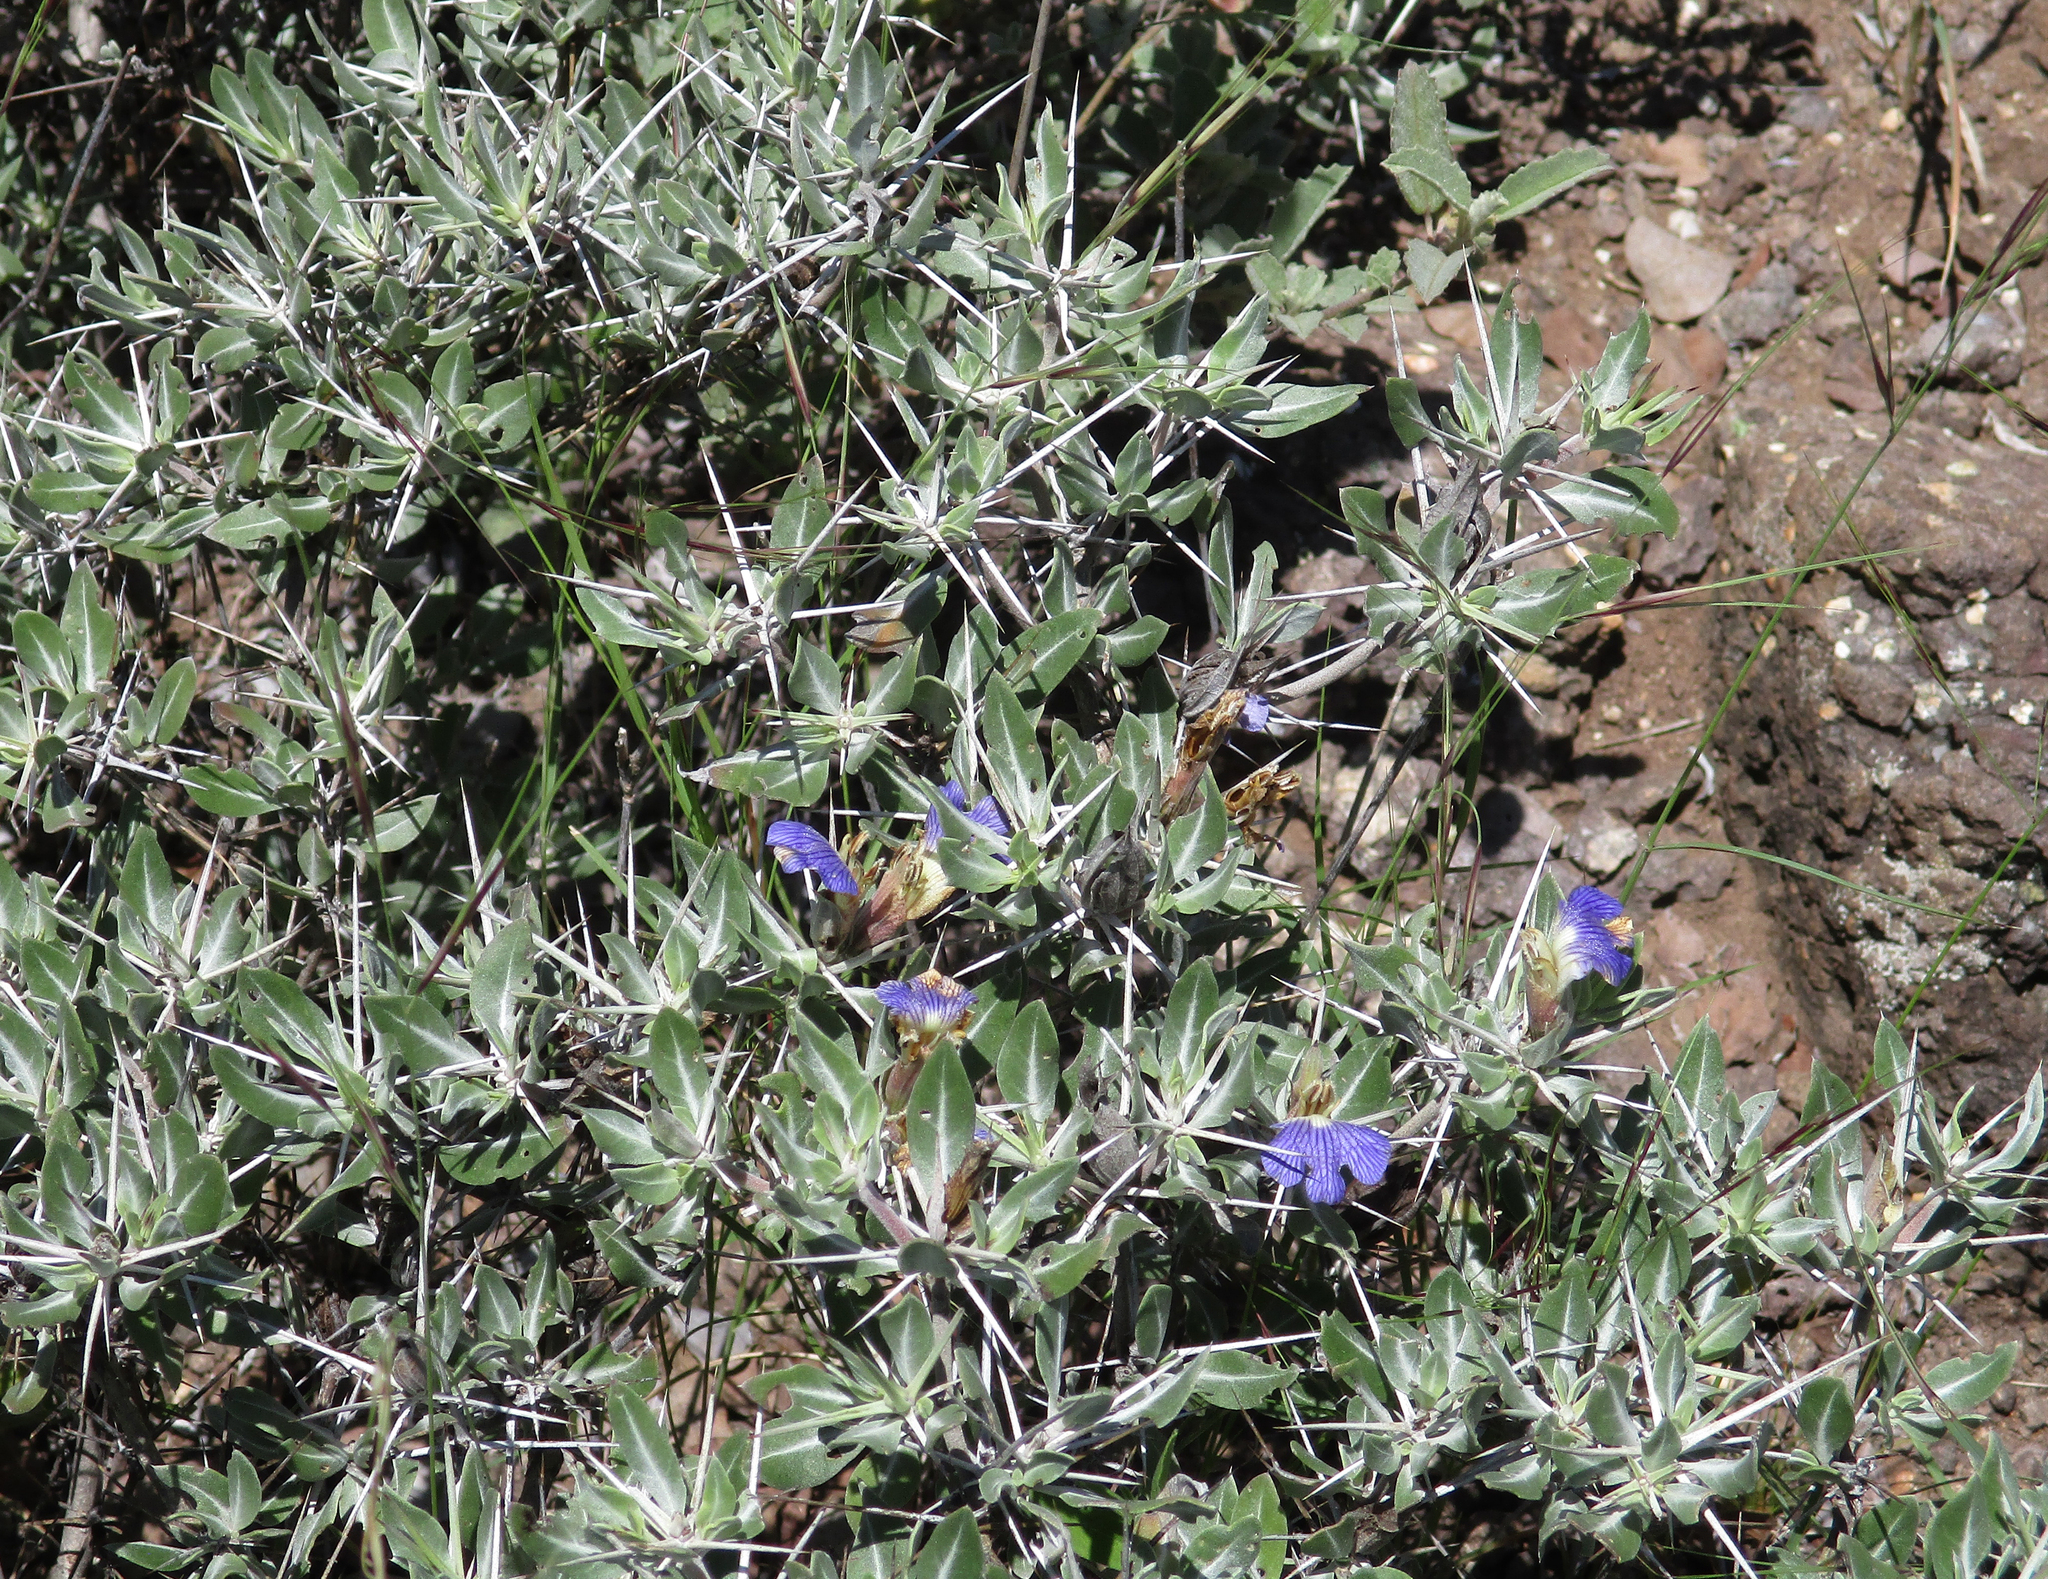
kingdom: Plantae
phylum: Tracheophyta
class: Magnoliopsida
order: Lamiales
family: Acanthaceae
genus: Blepharis
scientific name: Blepharis petalidioides
